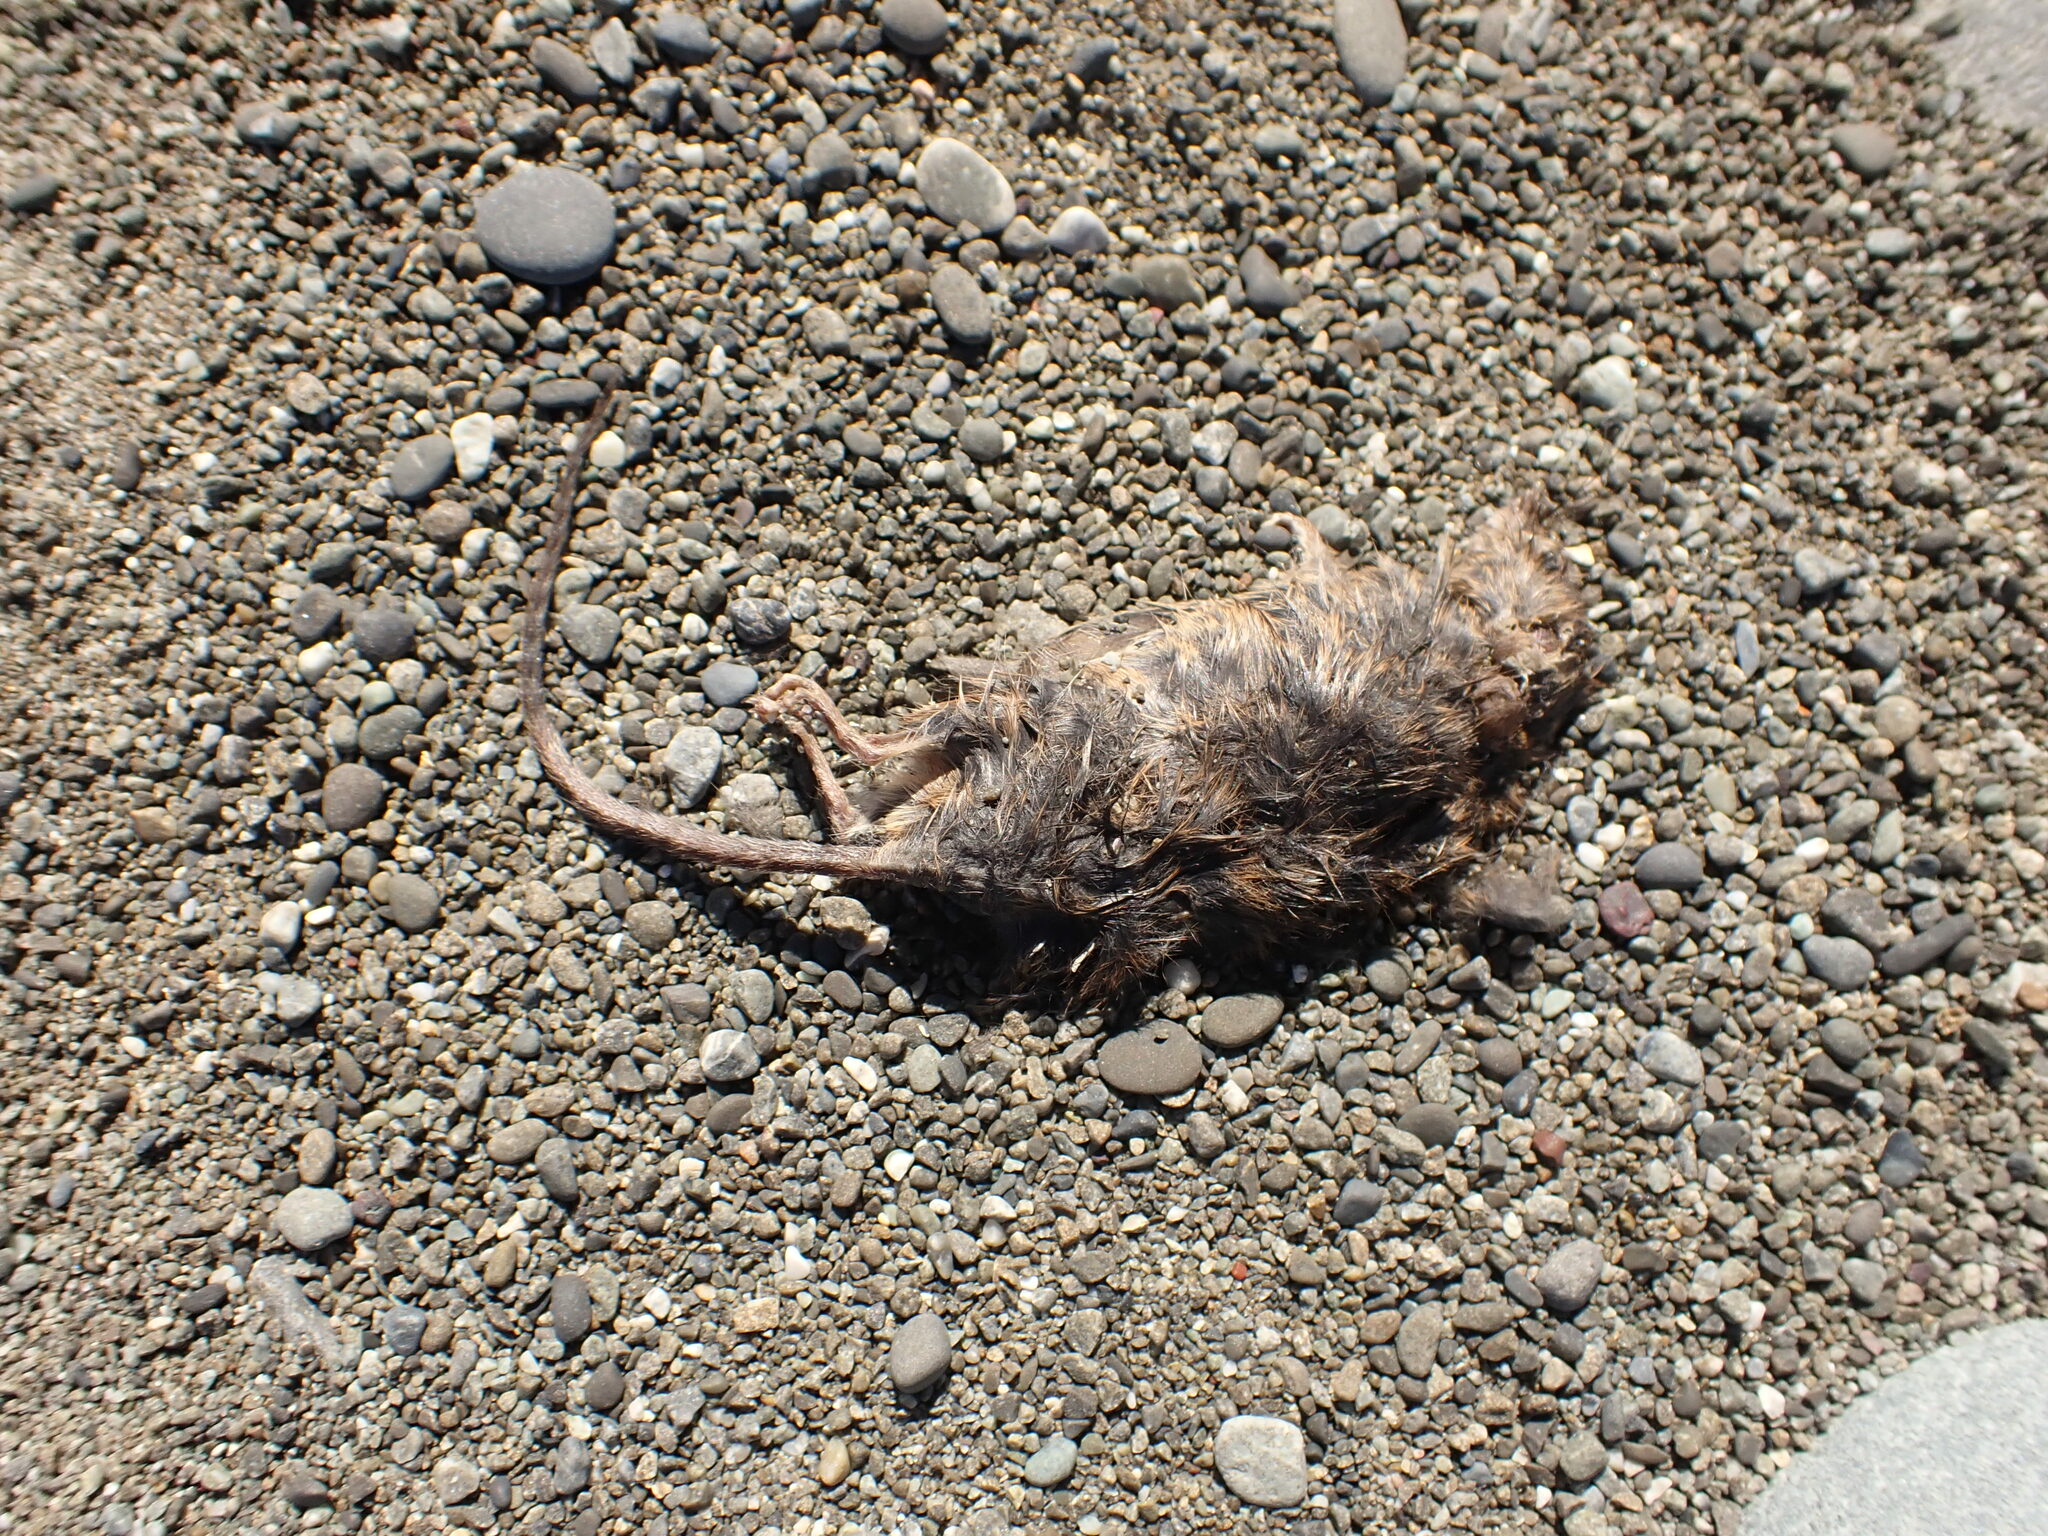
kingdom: Animalia
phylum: Chordata
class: Mammalia
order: Rodentia
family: Muridae
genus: Mus
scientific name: Mus musculus
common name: House mouse
